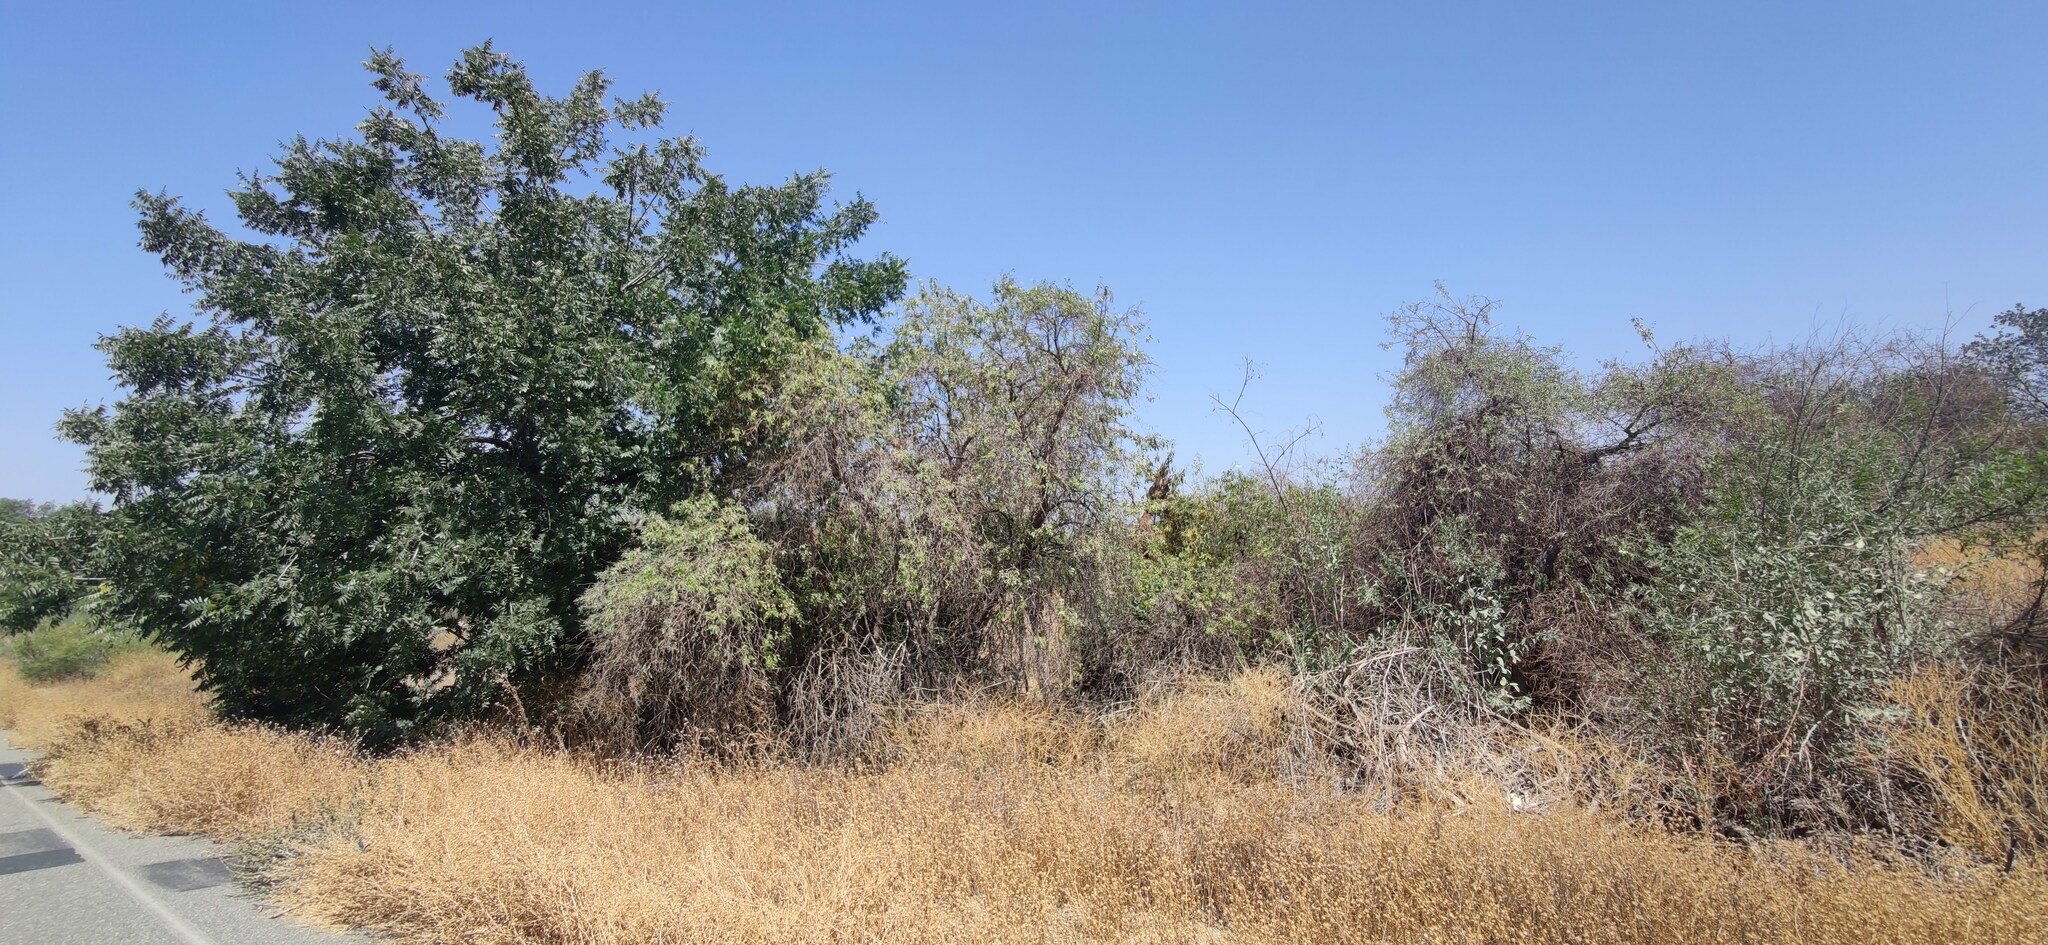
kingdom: Plantae
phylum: Tracheophyta
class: Magnoliopsida
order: Fagales
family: Juglandaceae
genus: Juglans
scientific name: Juglans californica
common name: Southern california black walnut
